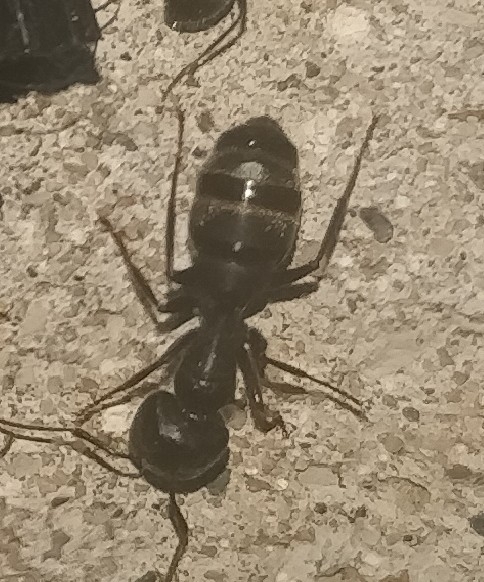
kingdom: Animalia
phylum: Arthropoda
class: Insecta
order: Hymenoptera
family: Formicidae
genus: Camponotus
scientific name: Camponotus pennsylvanicus
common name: Black carpenter ant
